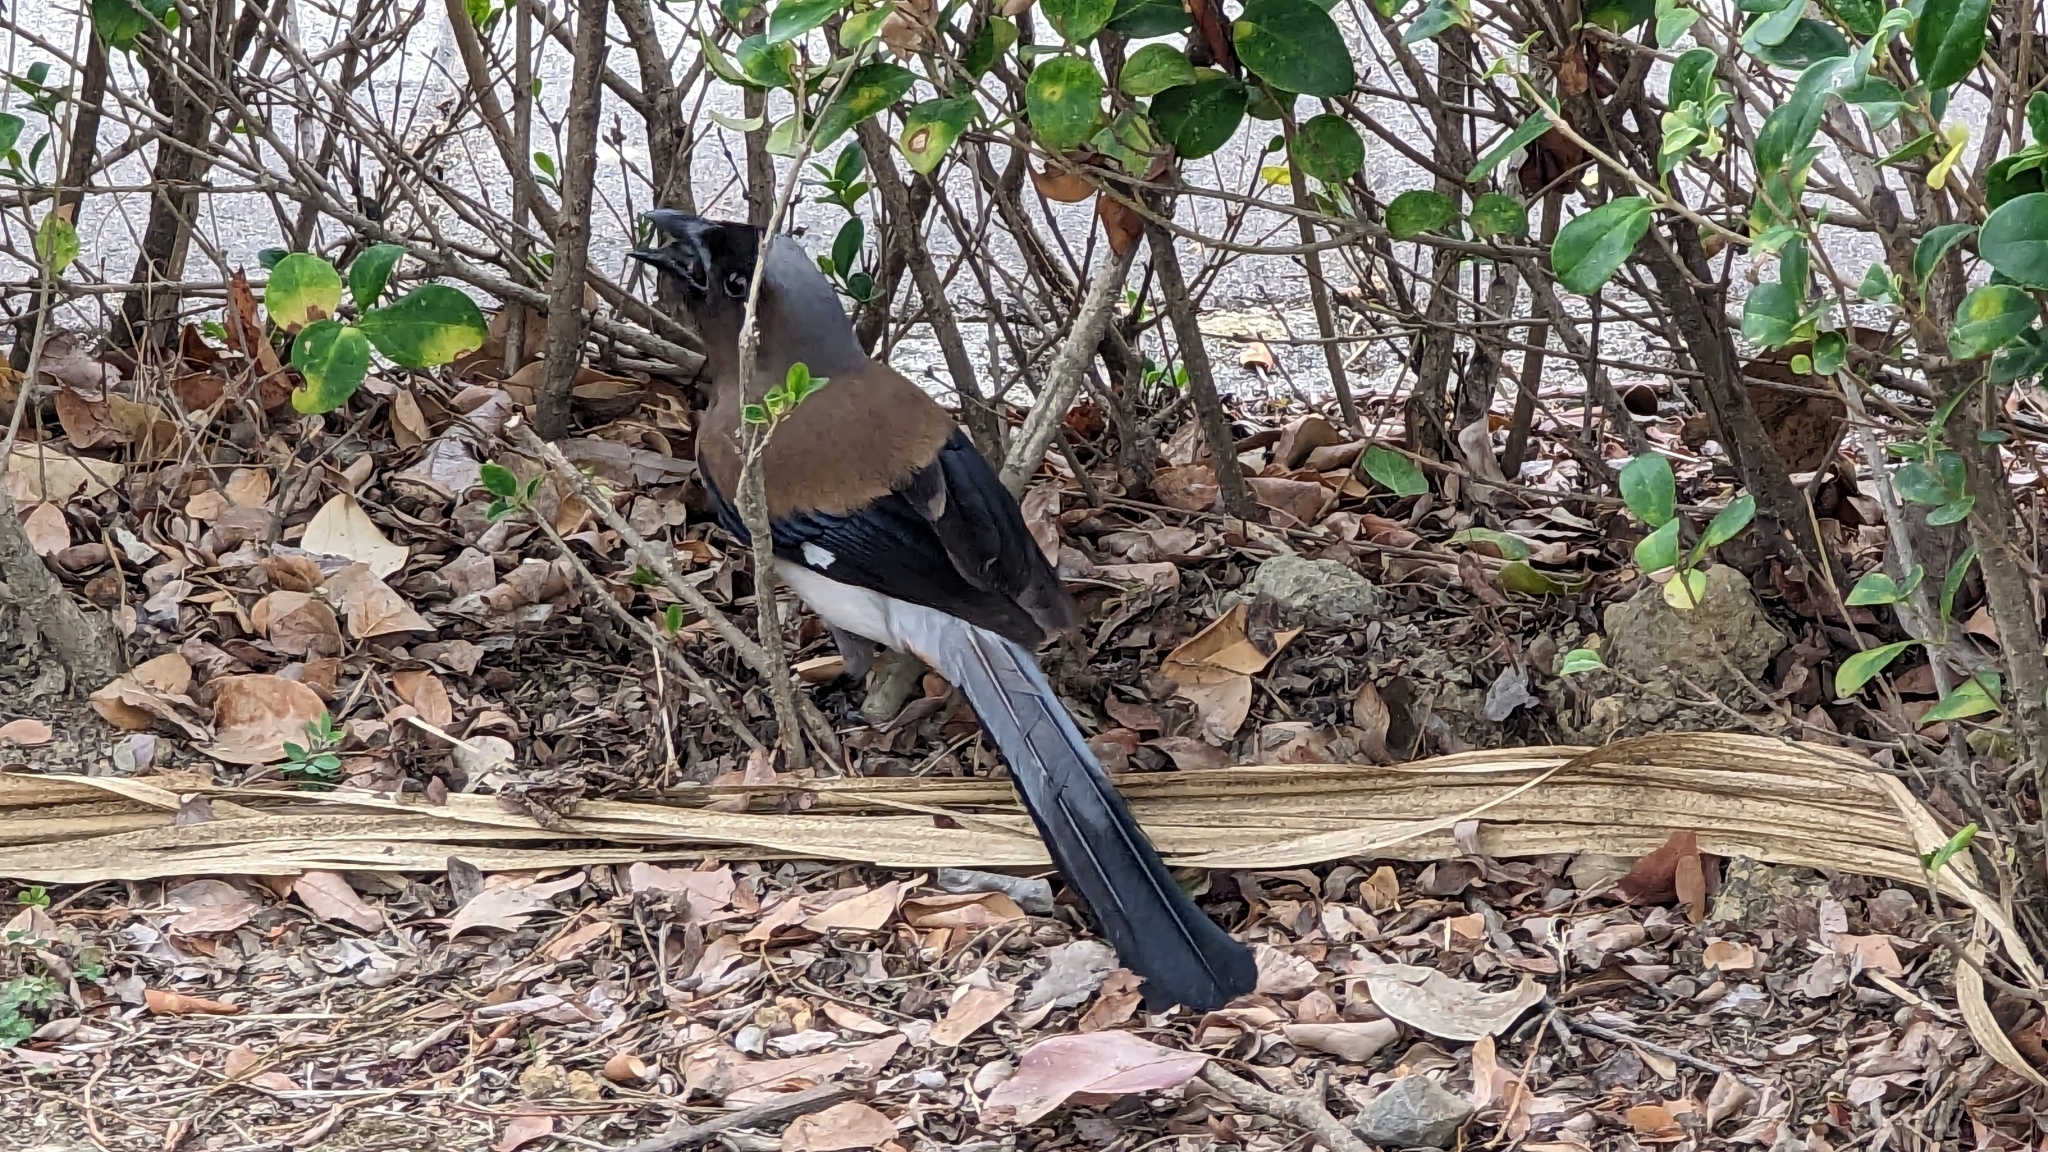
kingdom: Animalia
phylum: Chordata
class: Aves
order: Passeriformes
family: Corvidae
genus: Dendrocitta
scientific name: Dendrocitta formosae
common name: Grey treepie
